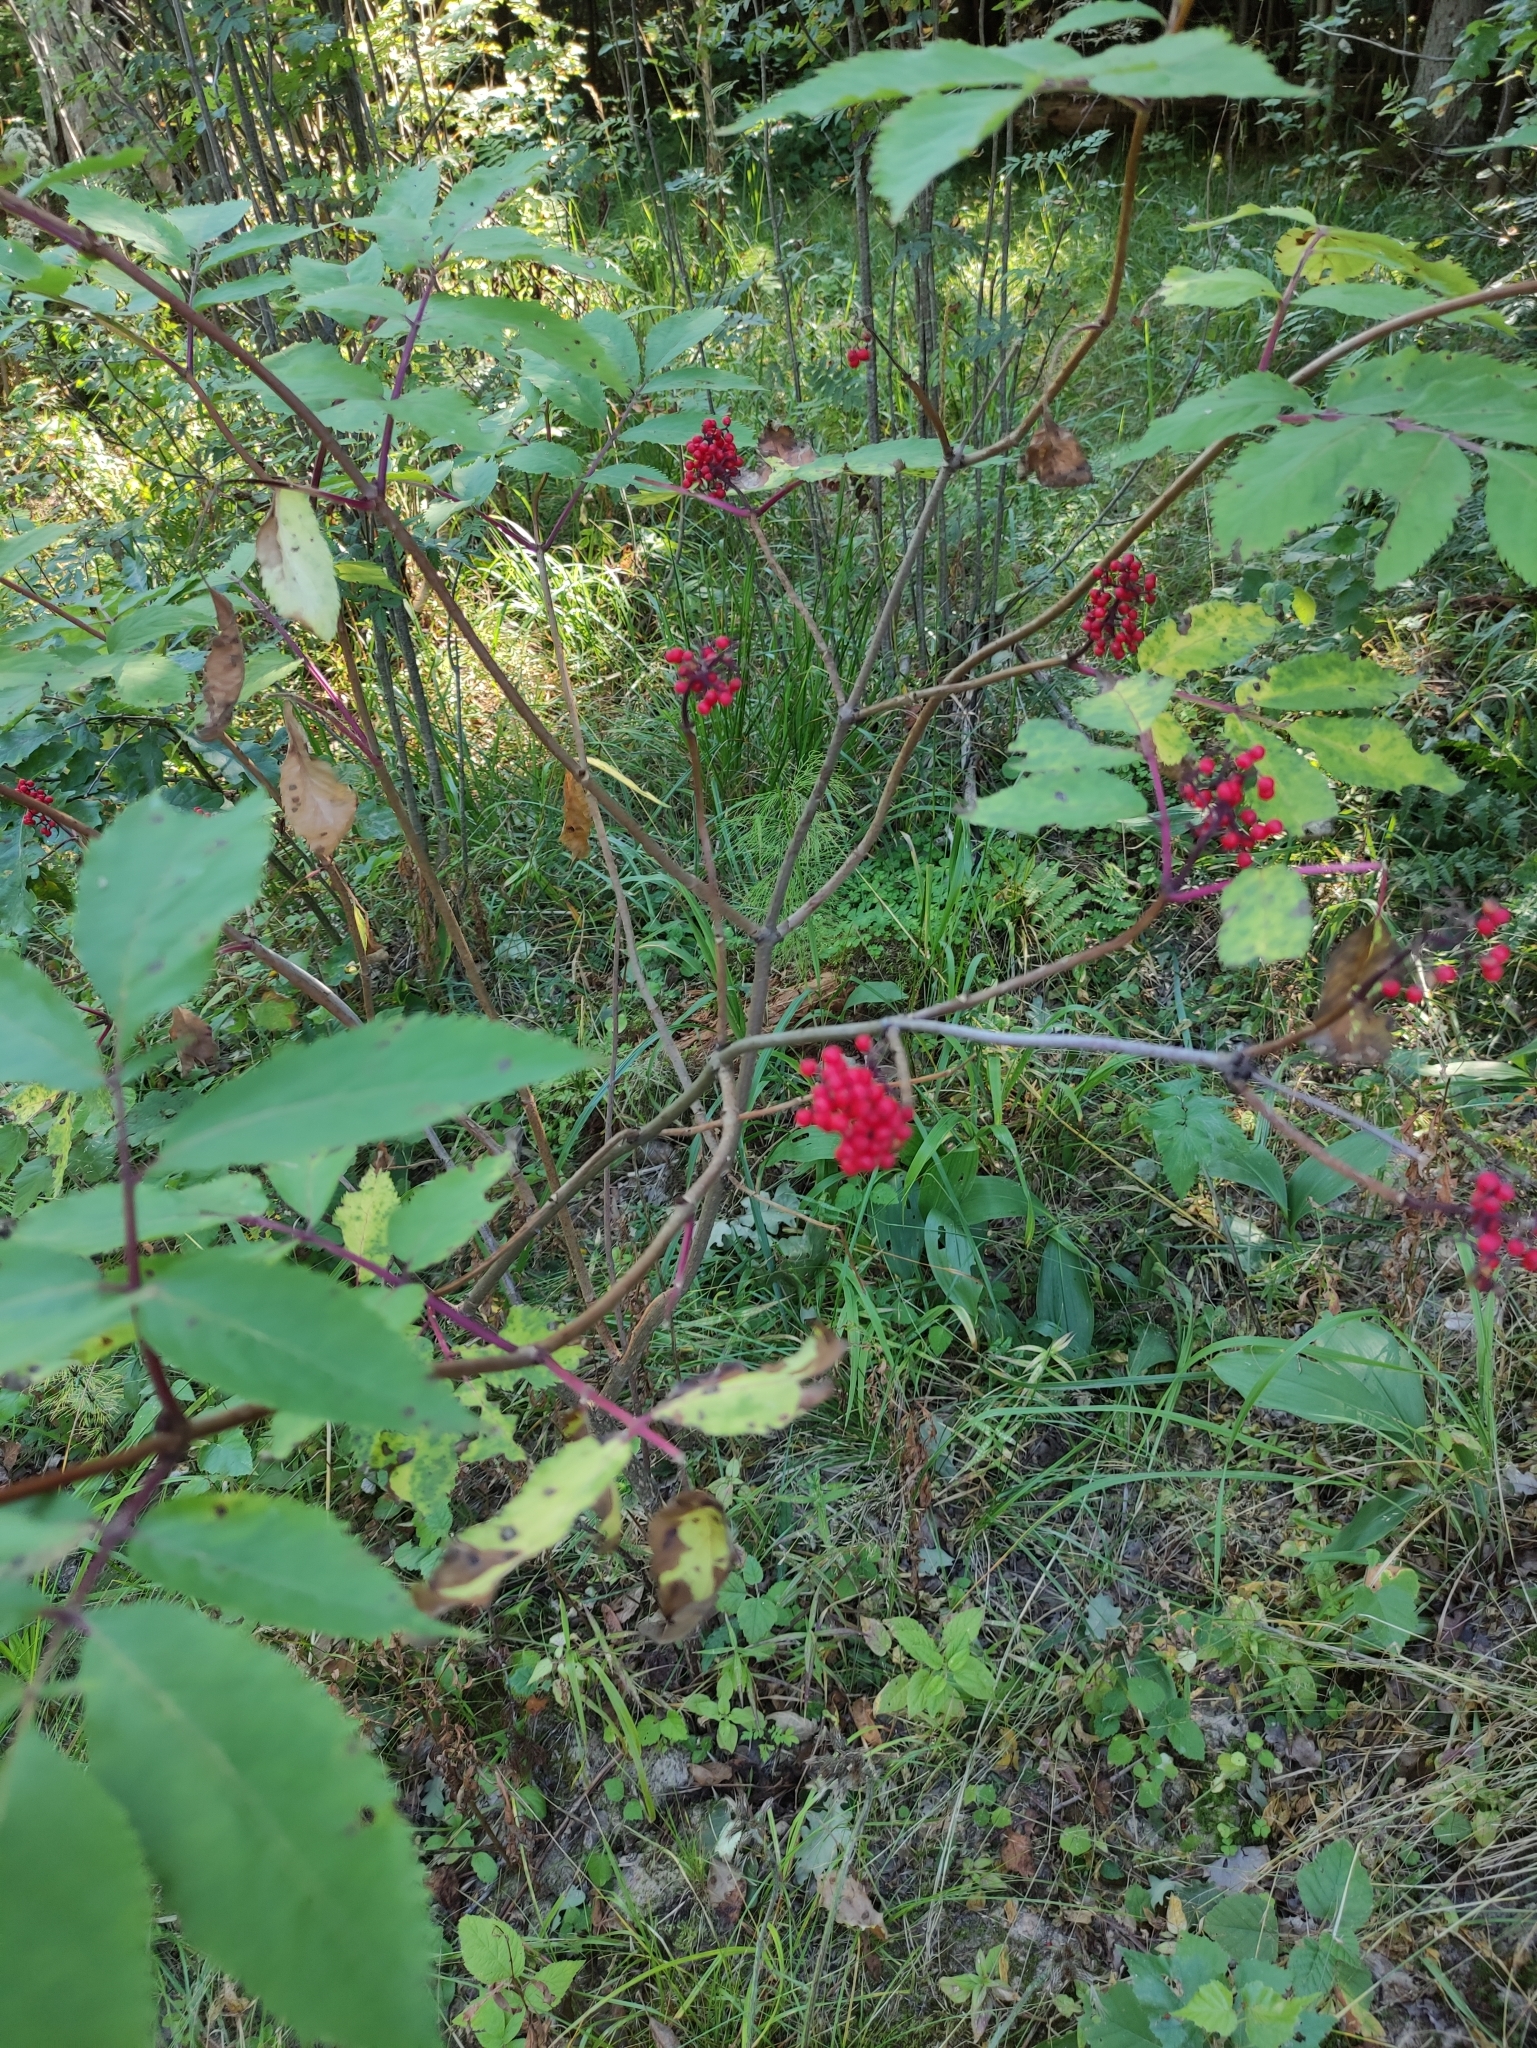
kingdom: Plantae
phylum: Tracheophyta
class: Magnoliopsida
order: Dipsacales
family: Viburnaceae
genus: Sambucus
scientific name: Sambucus racemosa
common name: Red-berried elder
